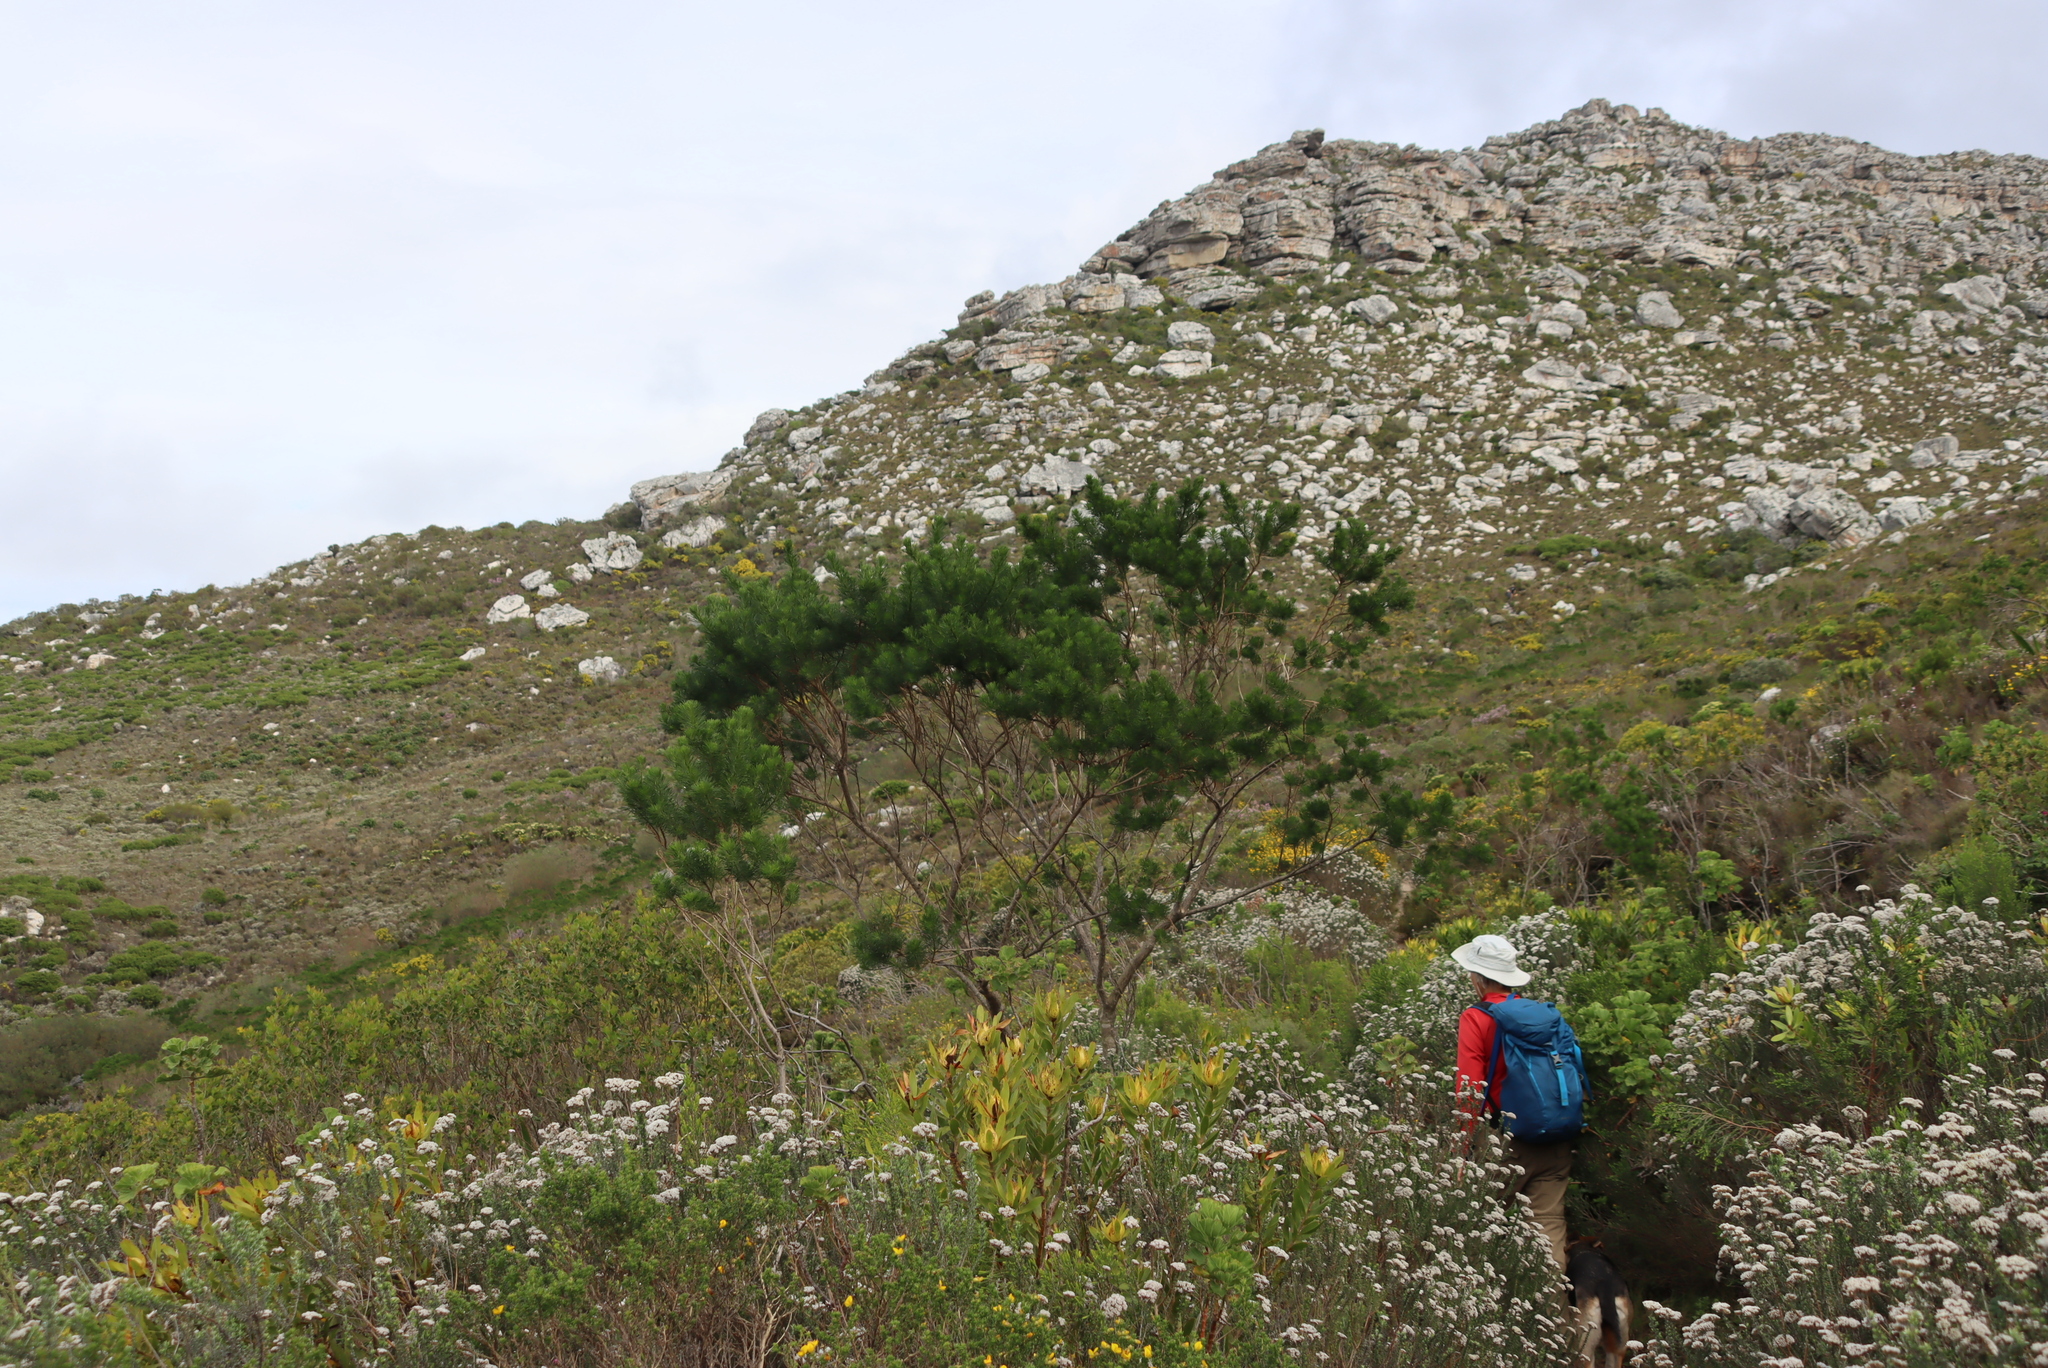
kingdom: Plantae
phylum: Tracheophyta
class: Magnoliopsida
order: Fabales
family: Fabaceae
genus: Psoralea
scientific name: Psoralea pinnata
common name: African scurfpea
